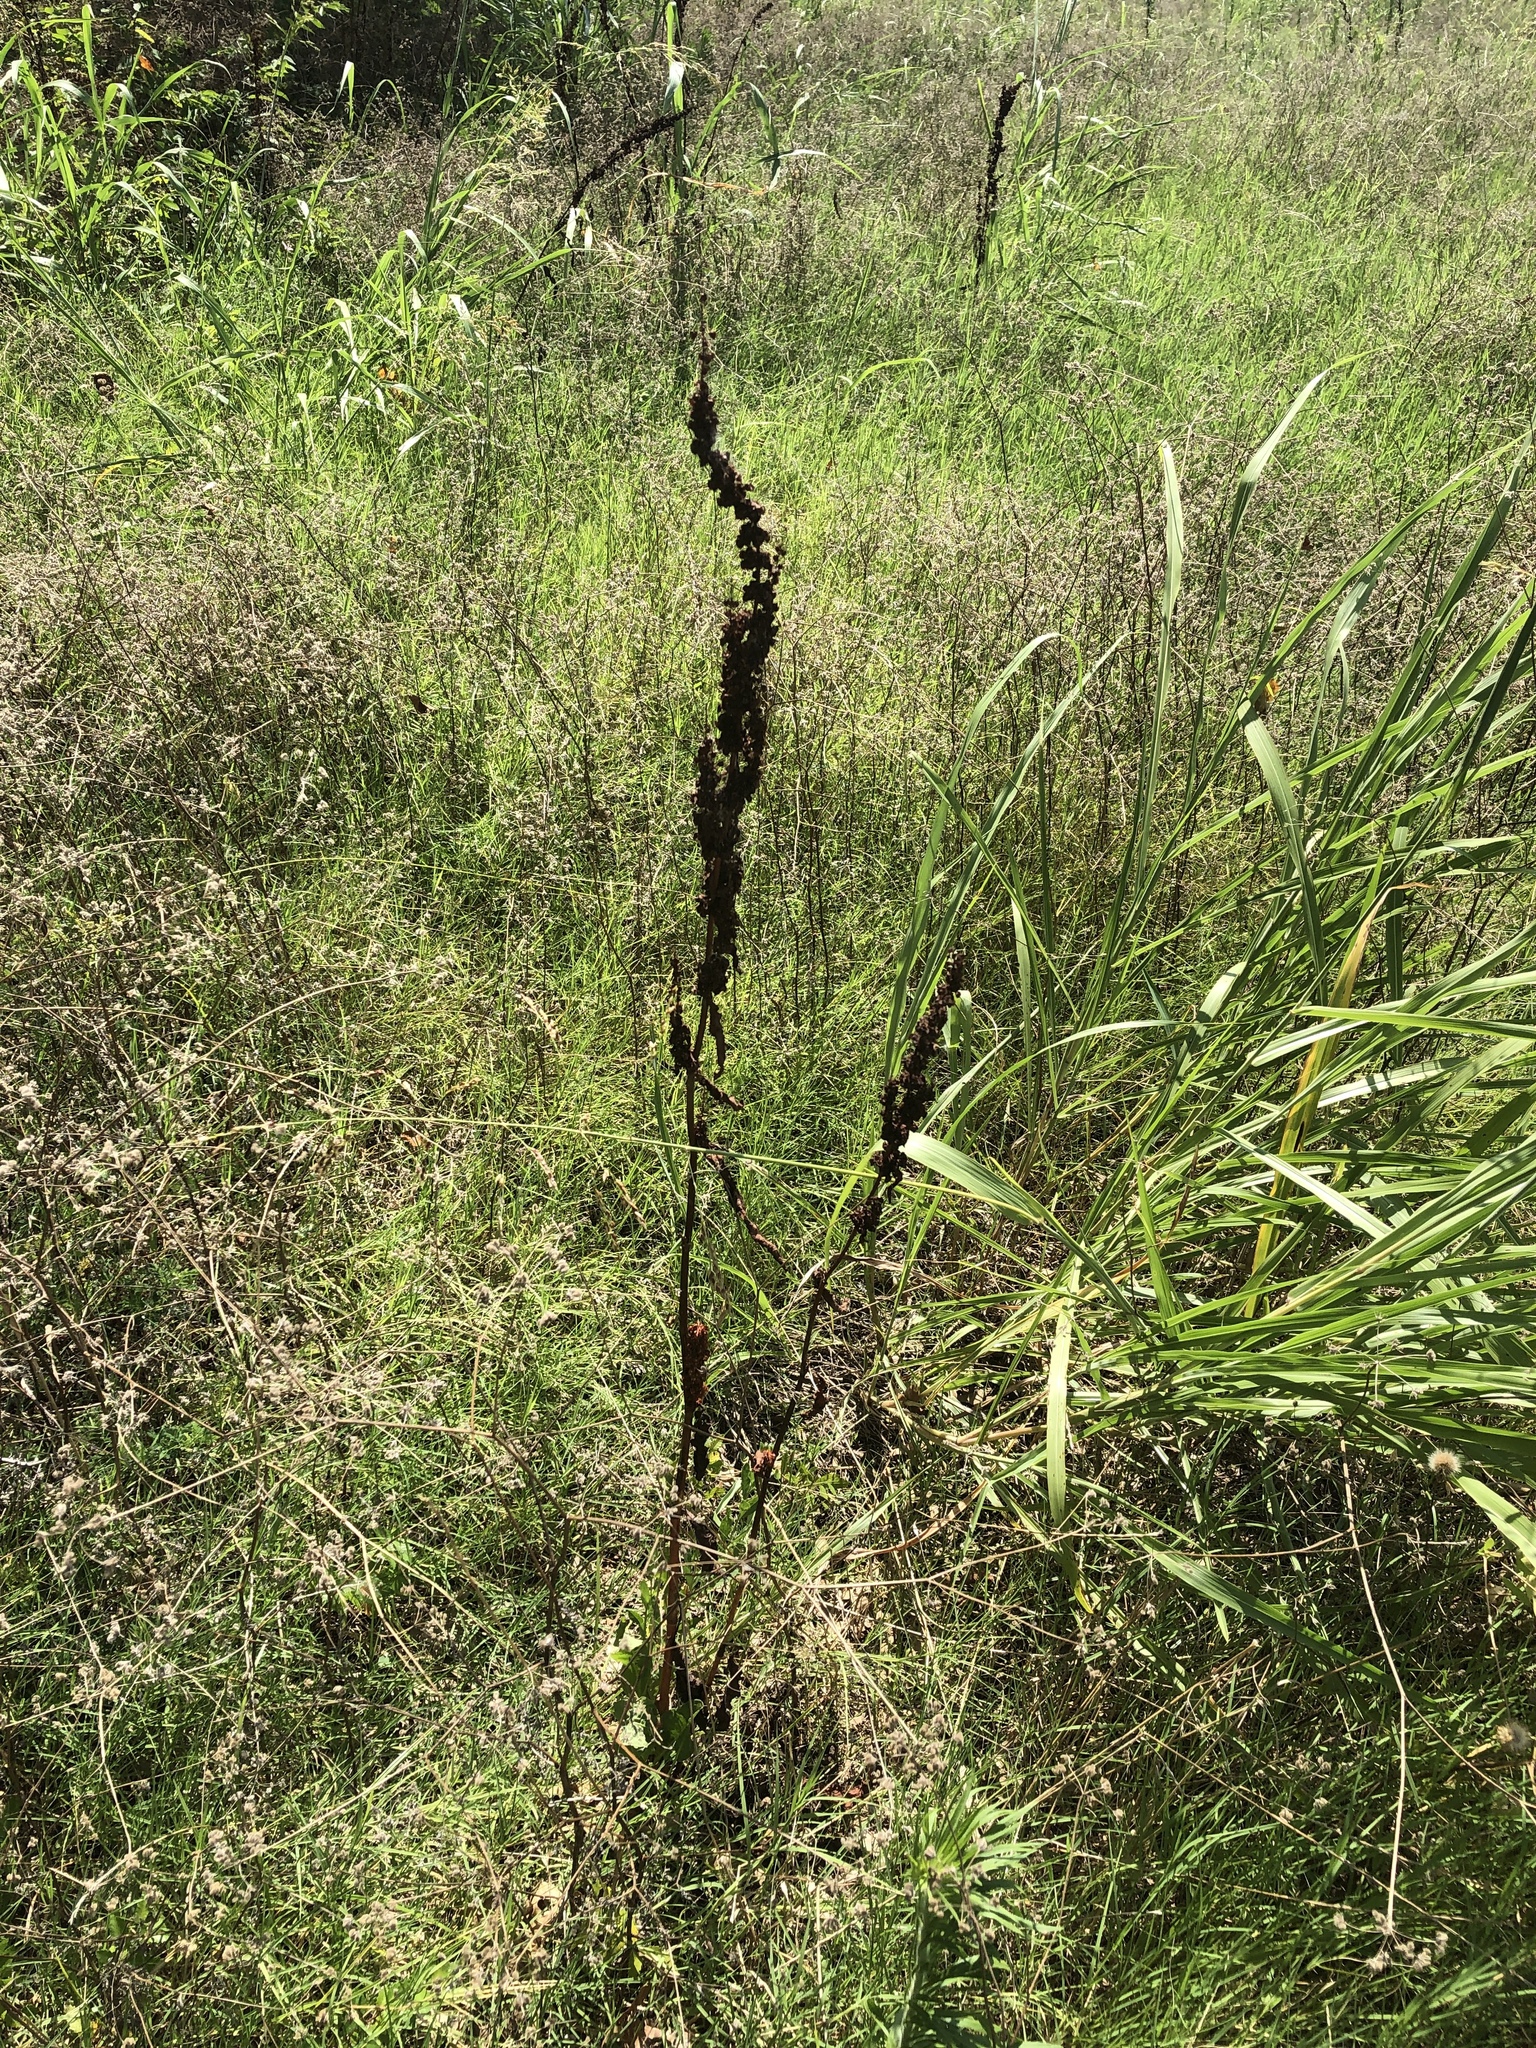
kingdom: Plantae
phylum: Tracheophyta
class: Magnoliopsida
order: Caryophyllales
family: Polygonaceae
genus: Rumex
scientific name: Rumex crispus
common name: Curled dock
